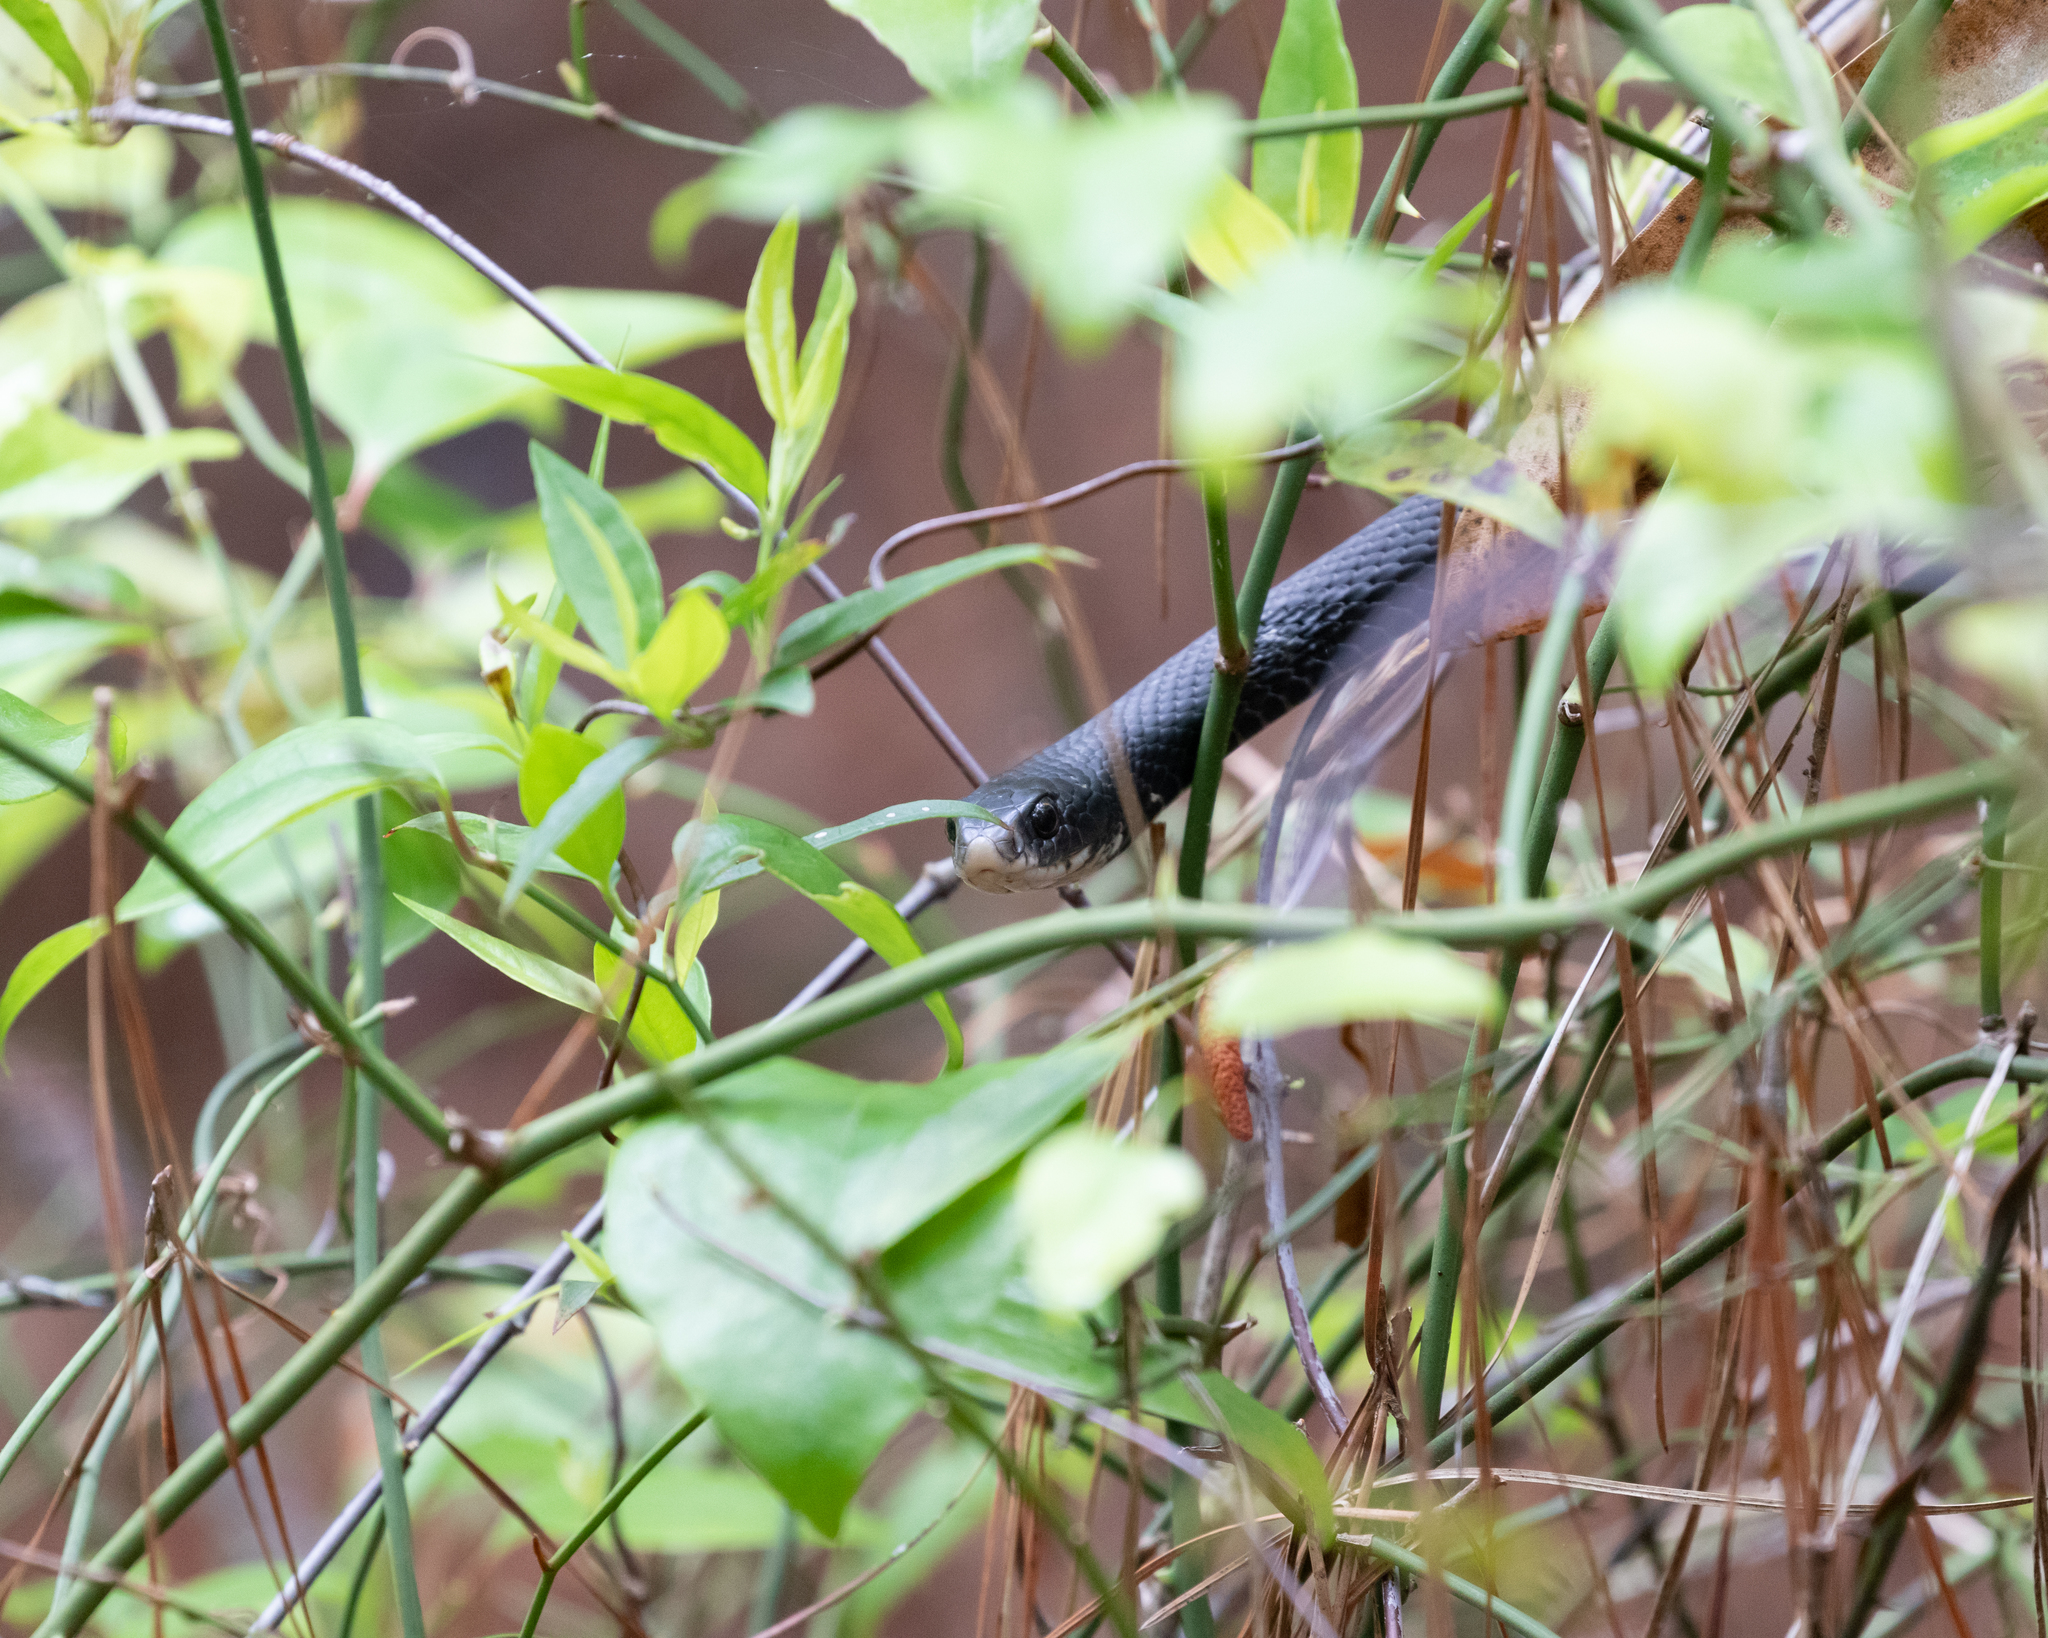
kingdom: Animalia
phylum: Chordata
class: Squamata
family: Colubridae
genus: Coluber
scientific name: Coluber constrictor
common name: Eastern racer
